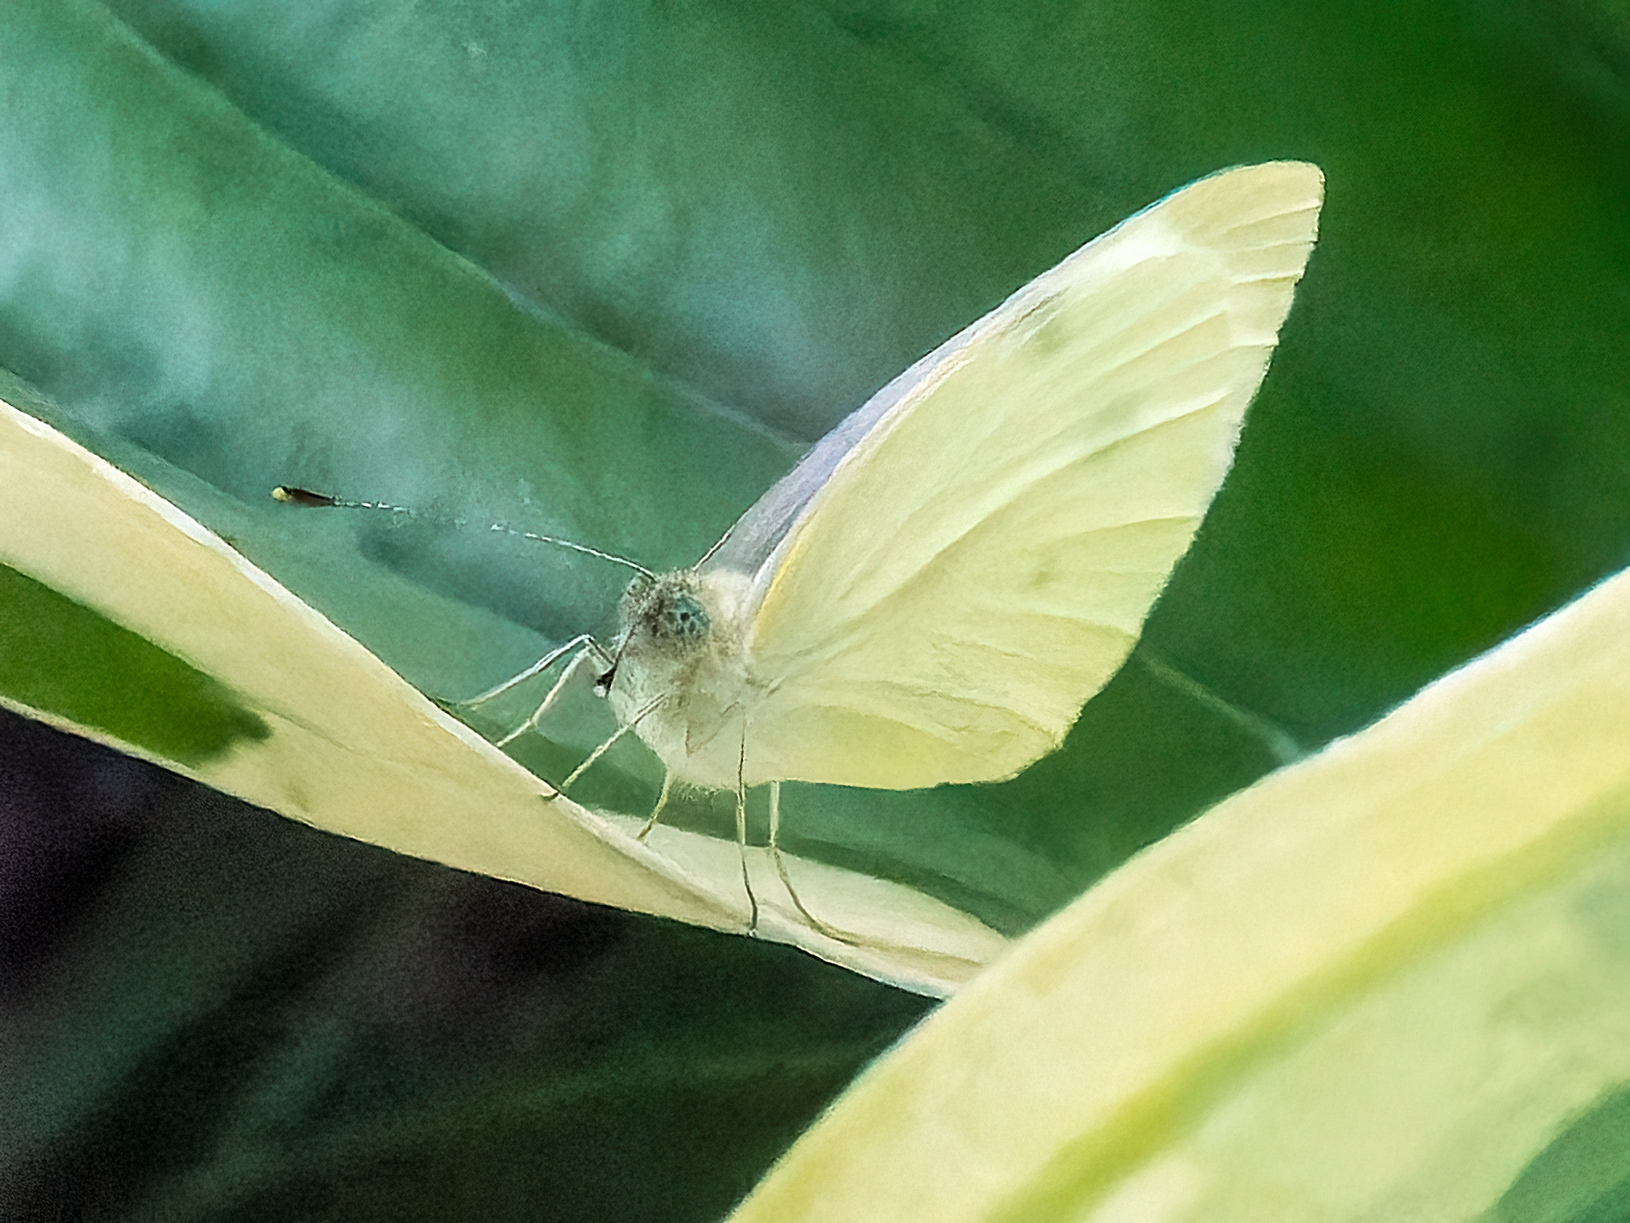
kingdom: Animalia
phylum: Arthropoda
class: Insecta
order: Lepidoptera
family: Pieridae
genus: Pieris
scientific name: Pieris rapae
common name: Small white
